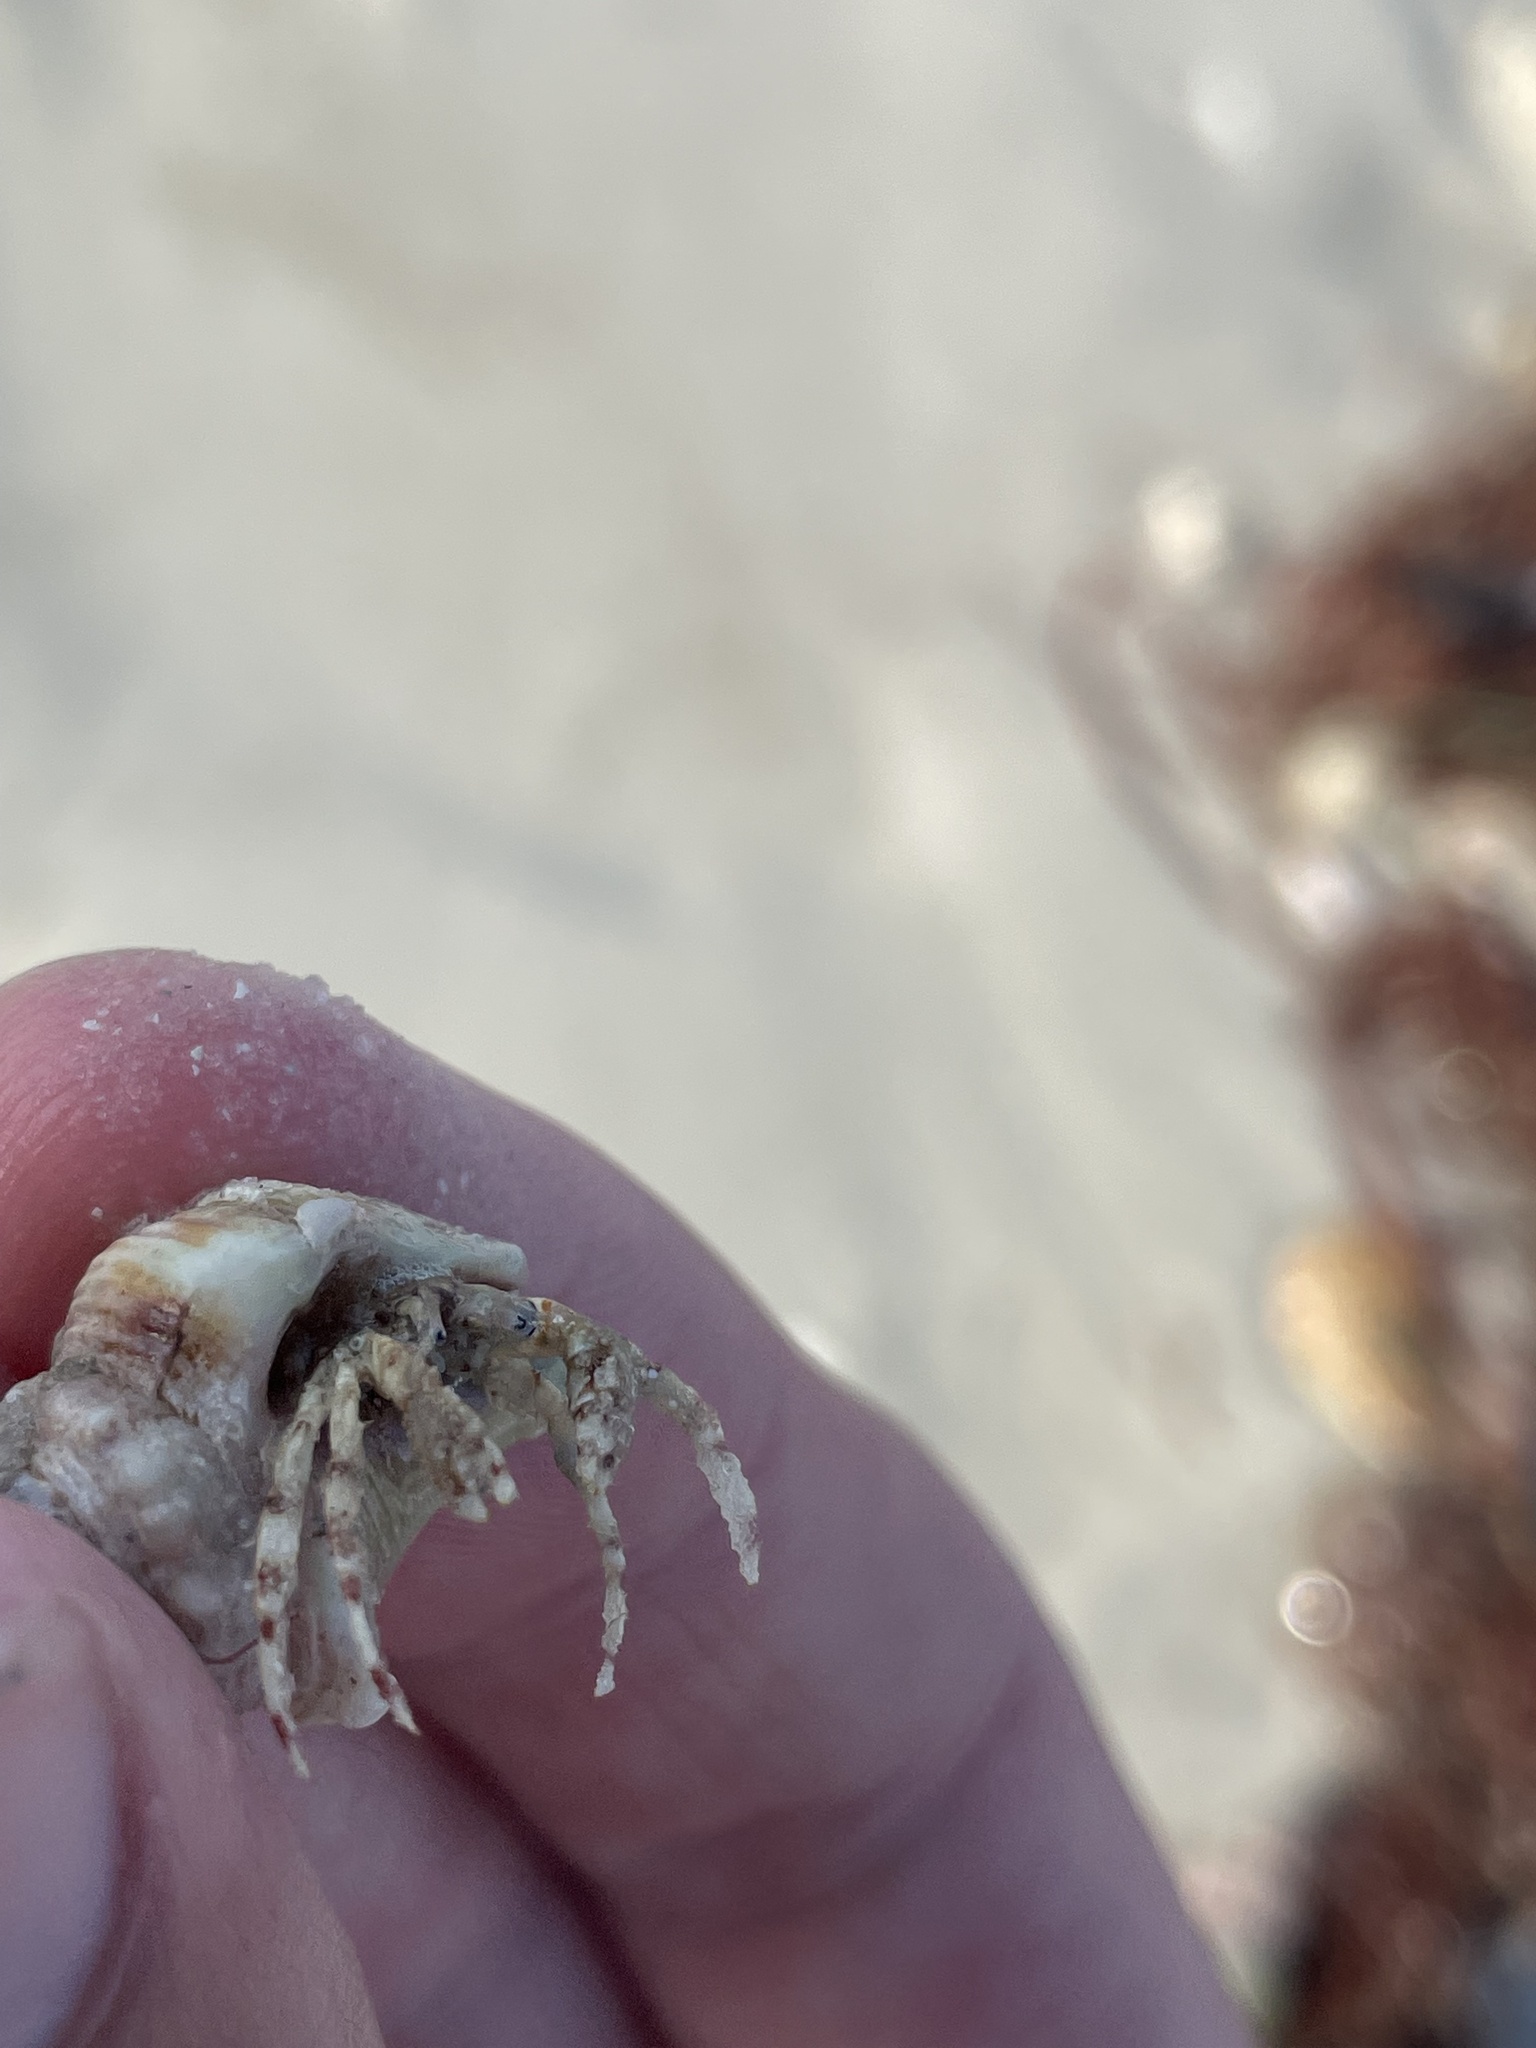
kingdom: Animalia
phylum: Arthropoda
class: Malacostraca
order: Decapoda
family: Diogenidae
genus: Areopaguristes
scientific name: Areopaguristes hummi
